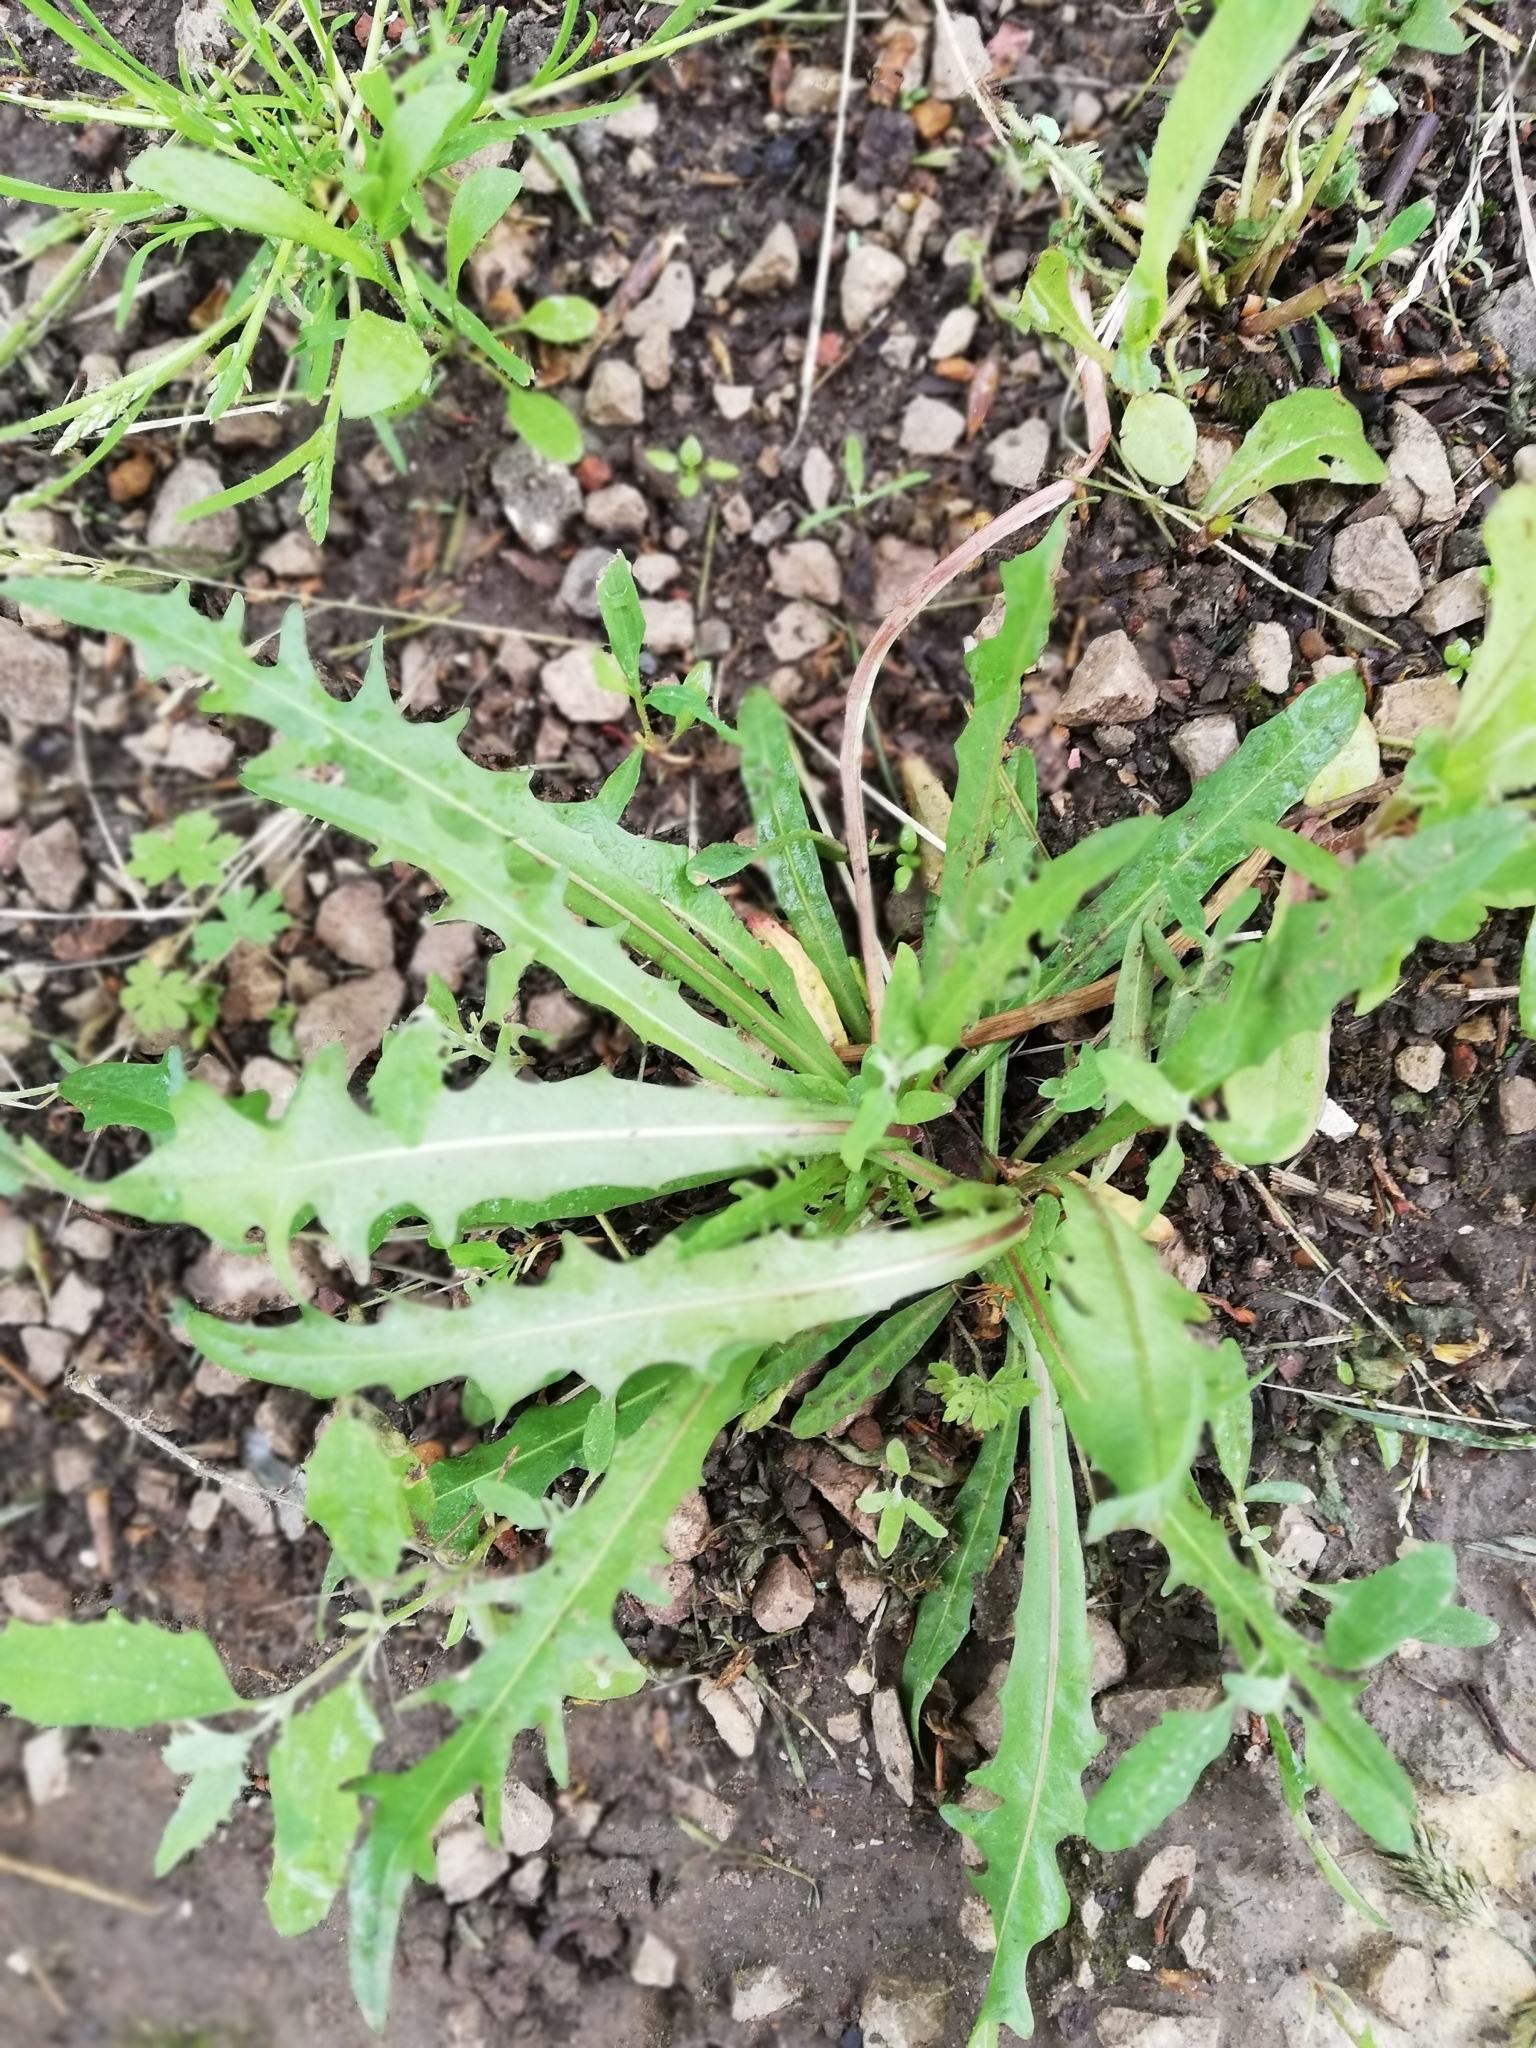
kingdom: Plantae
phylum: Tracheophyta
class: Magnoliopsida
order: Asterales
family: Asteraceae
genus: Scorzoneroides
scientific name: Scorzoneroides autumnalis
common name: Autumn hawkbit
